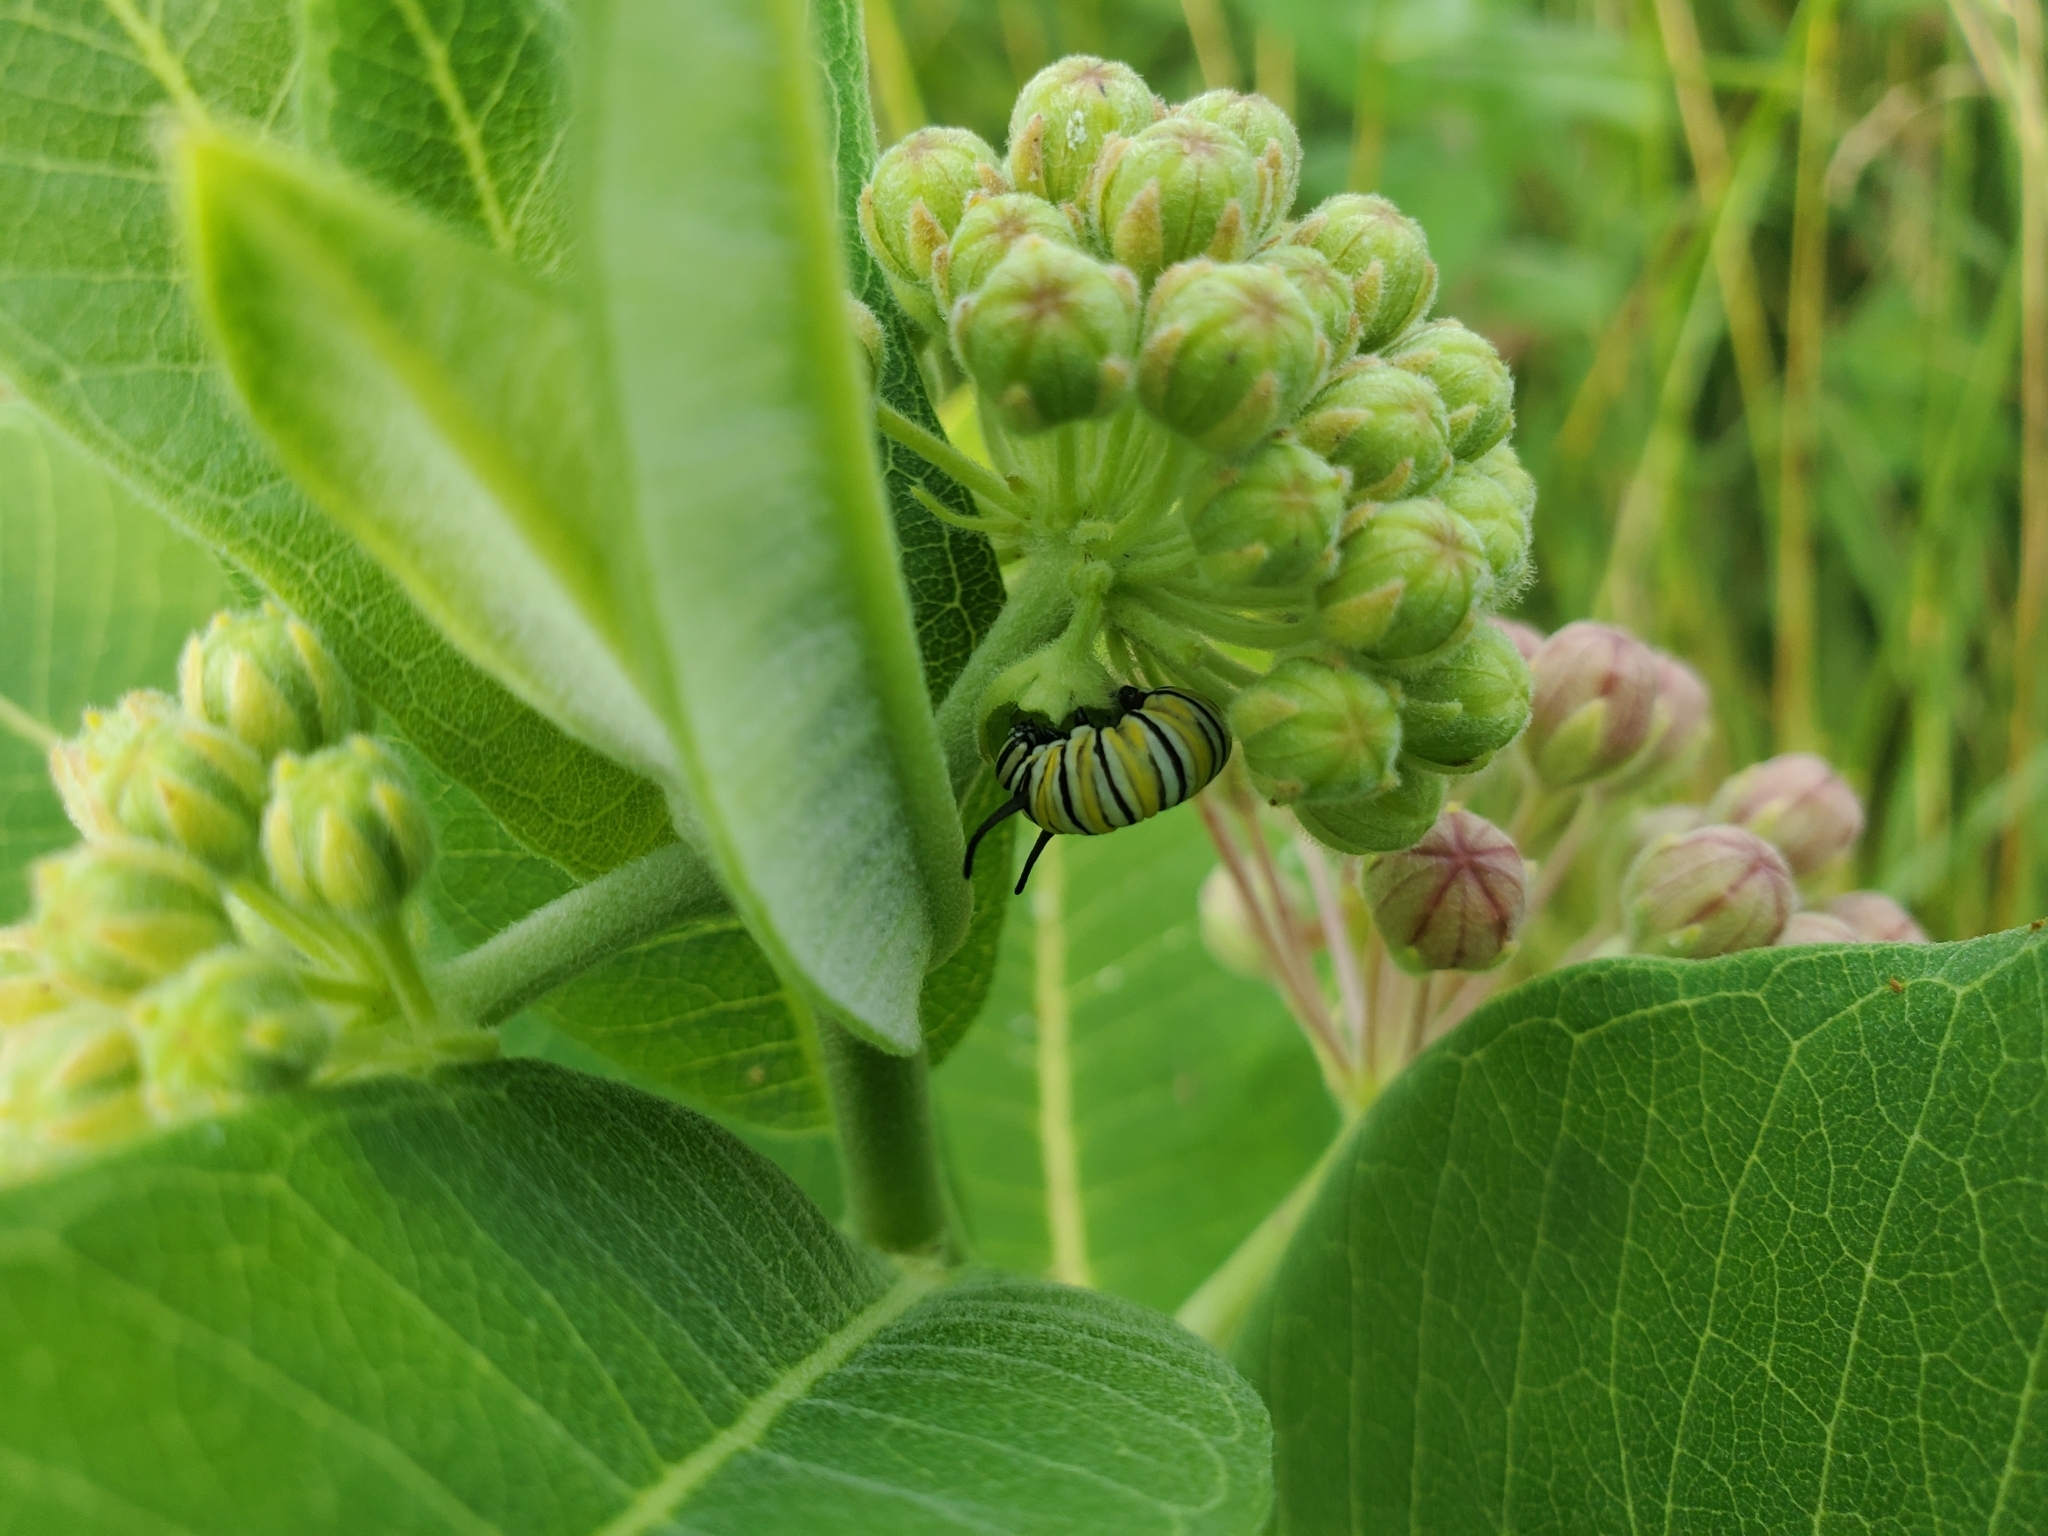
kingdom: Animalia
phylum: Arthropoda
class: Insecta
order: Lepidoptera
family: Nymphalidae
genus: Danaus
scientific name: Danaus plexippus
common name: Monarch
